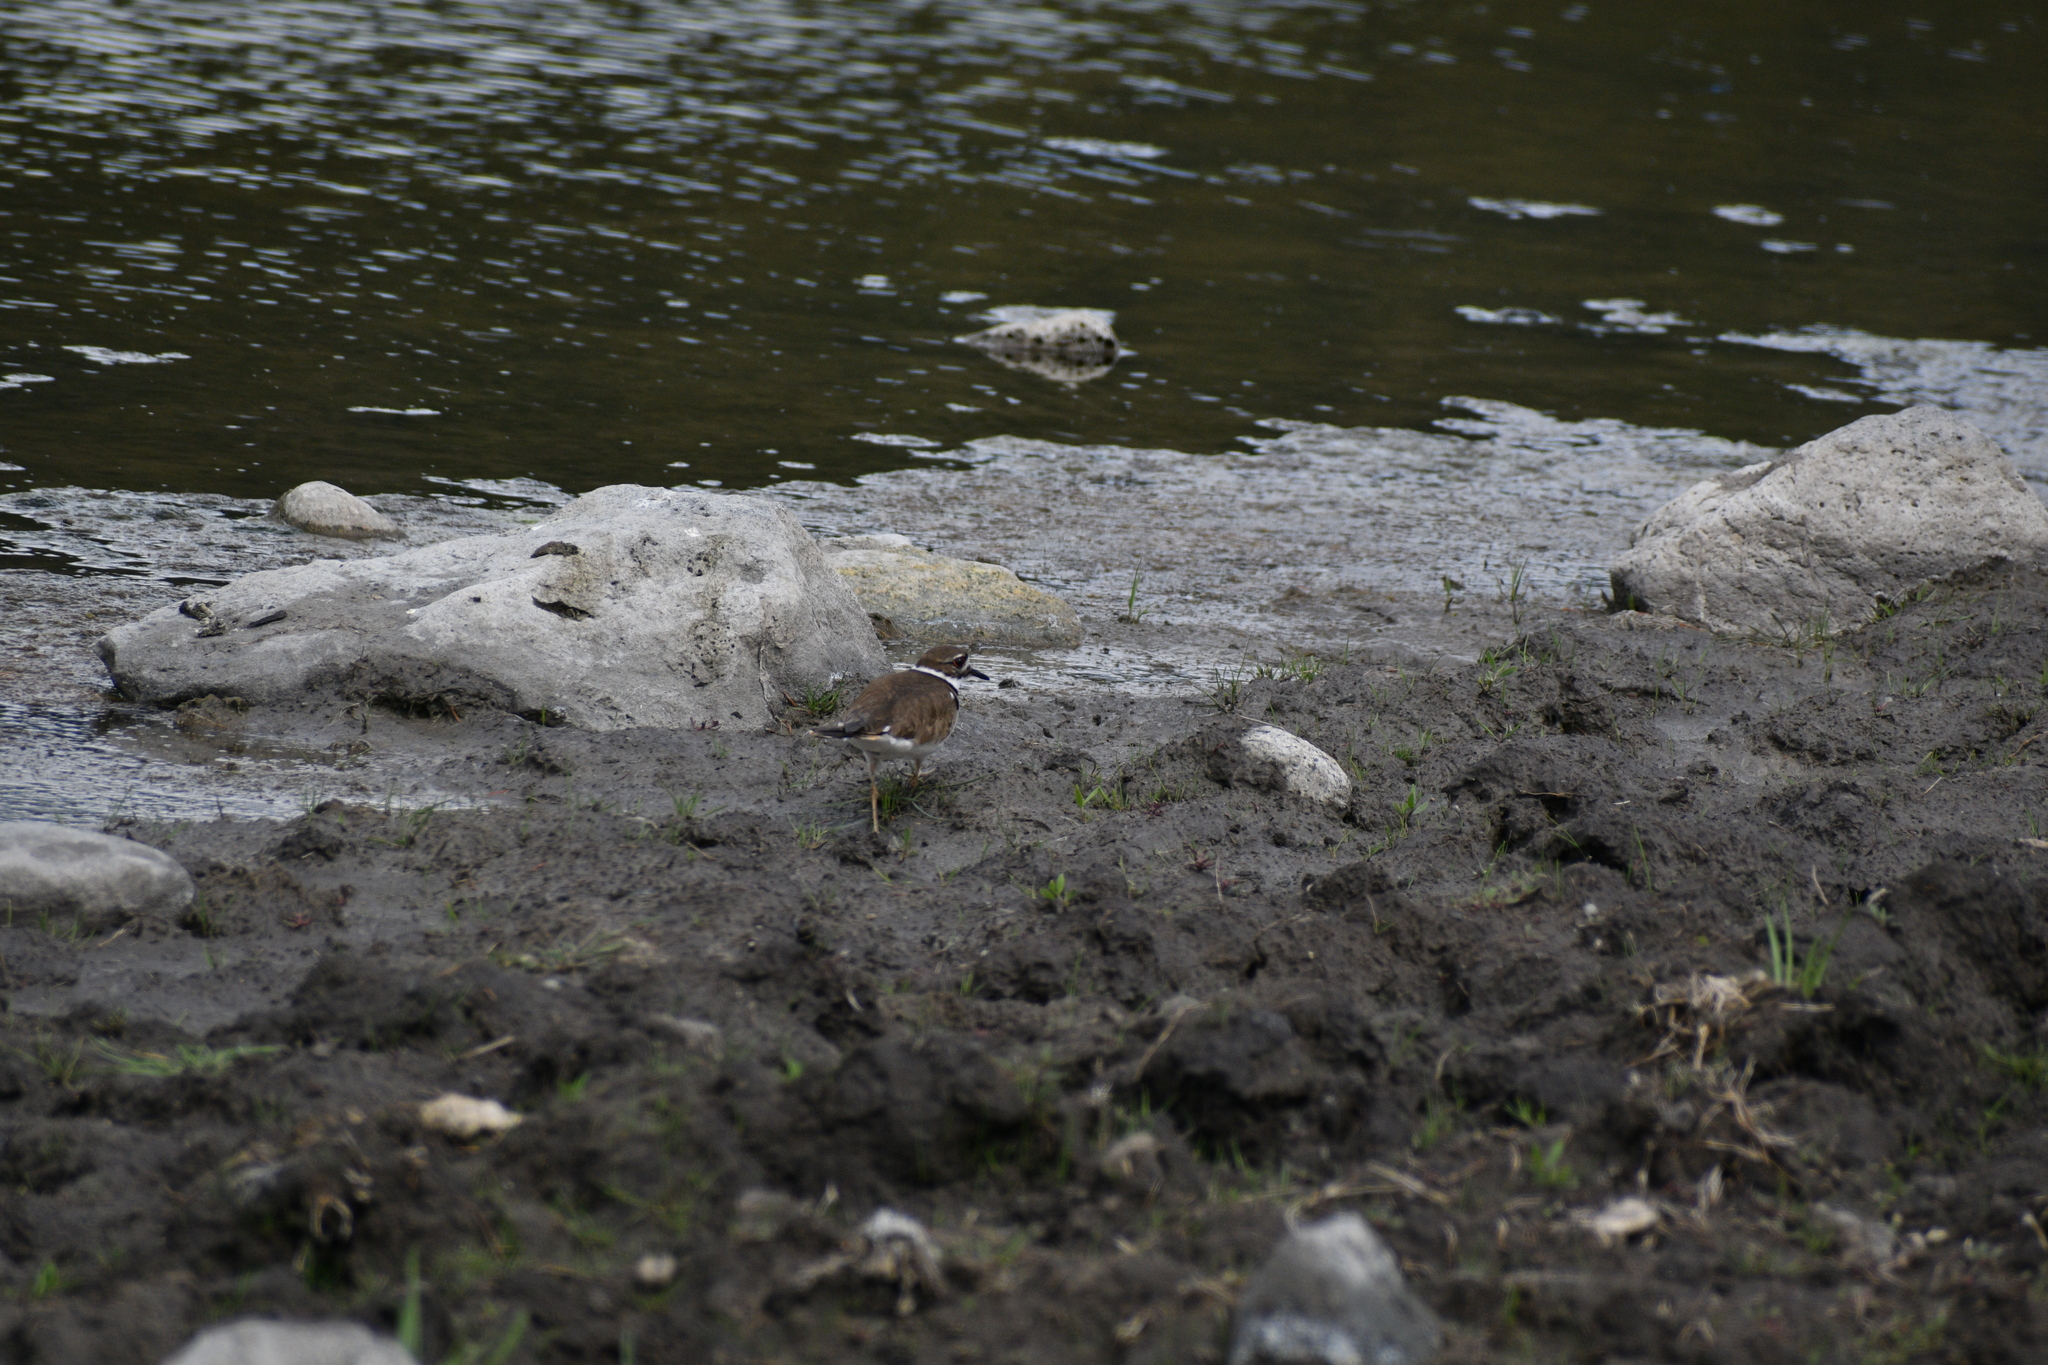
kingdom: Animalia
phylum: Chordata
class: Aves
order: Charadriiformes
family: Charadriidae
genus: Charadrius
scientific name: Charadrius vociferus
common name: Killdeer
